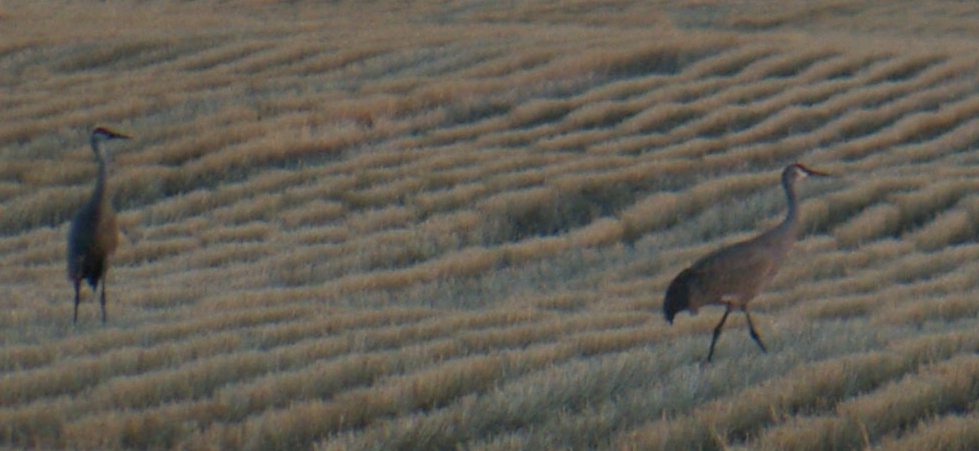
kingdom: Animalia
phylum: Chordata
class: Aves
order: Gruiformes
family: Gruidae
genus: Grus
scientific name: Grus canadensis
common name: Sandhill crane
